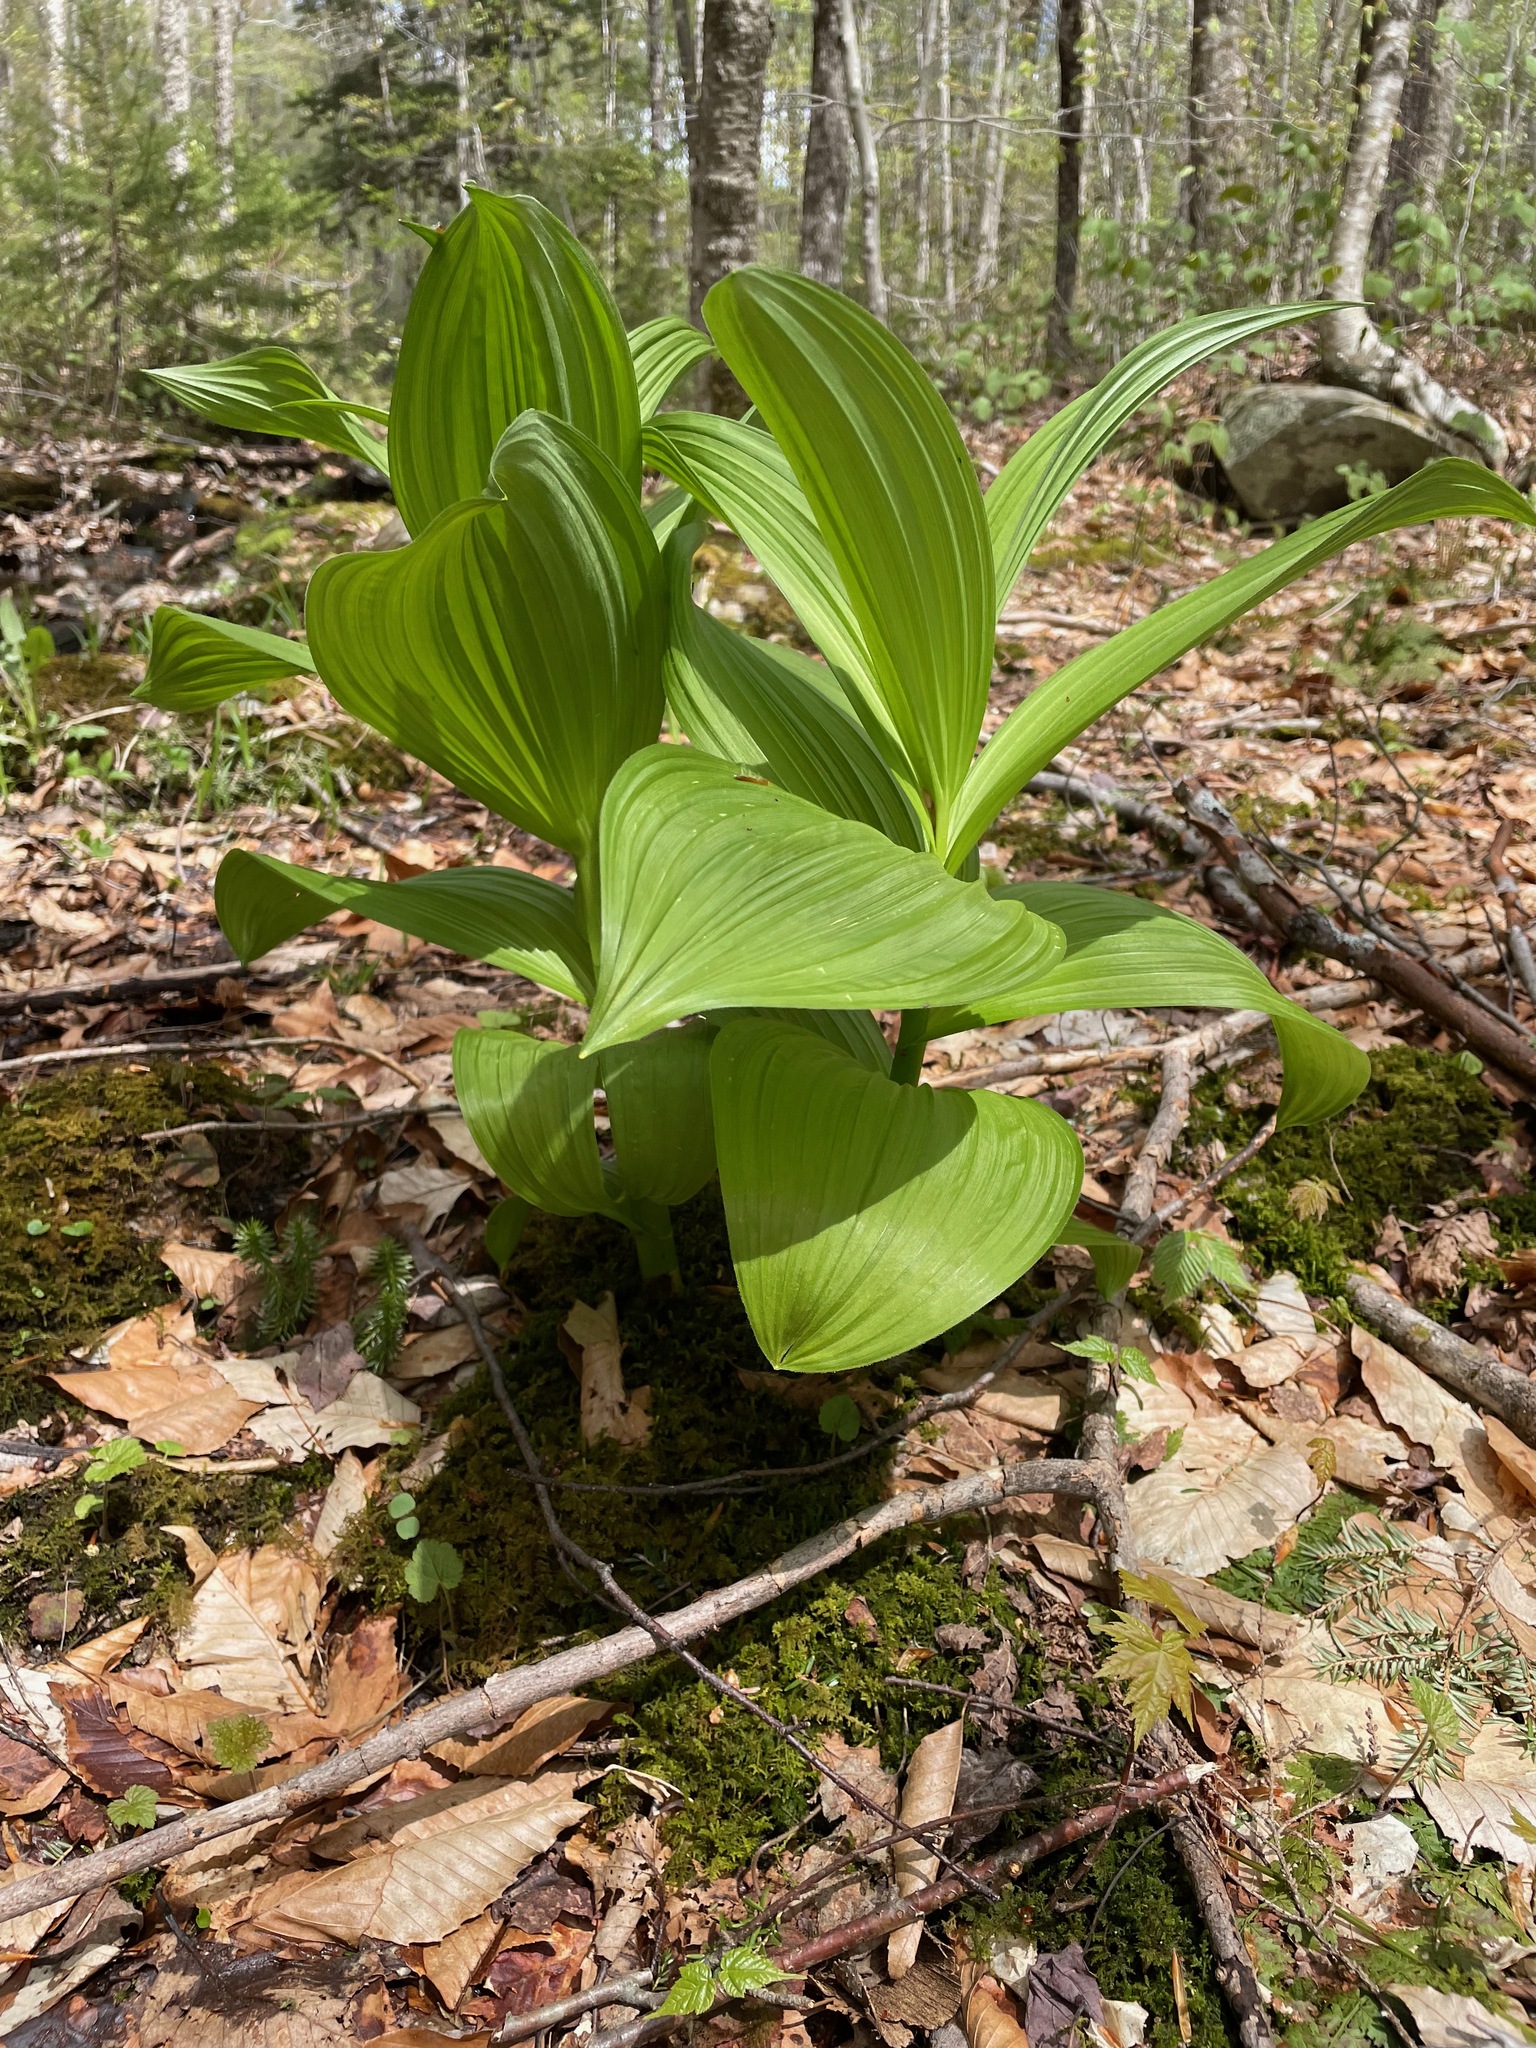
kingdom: Plantae
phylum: Tracheophyta
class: Liliopsida
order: Liliales
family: Melanthiaceae
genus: Veratrum
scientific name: Veratrum viride
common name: American false hellebore
